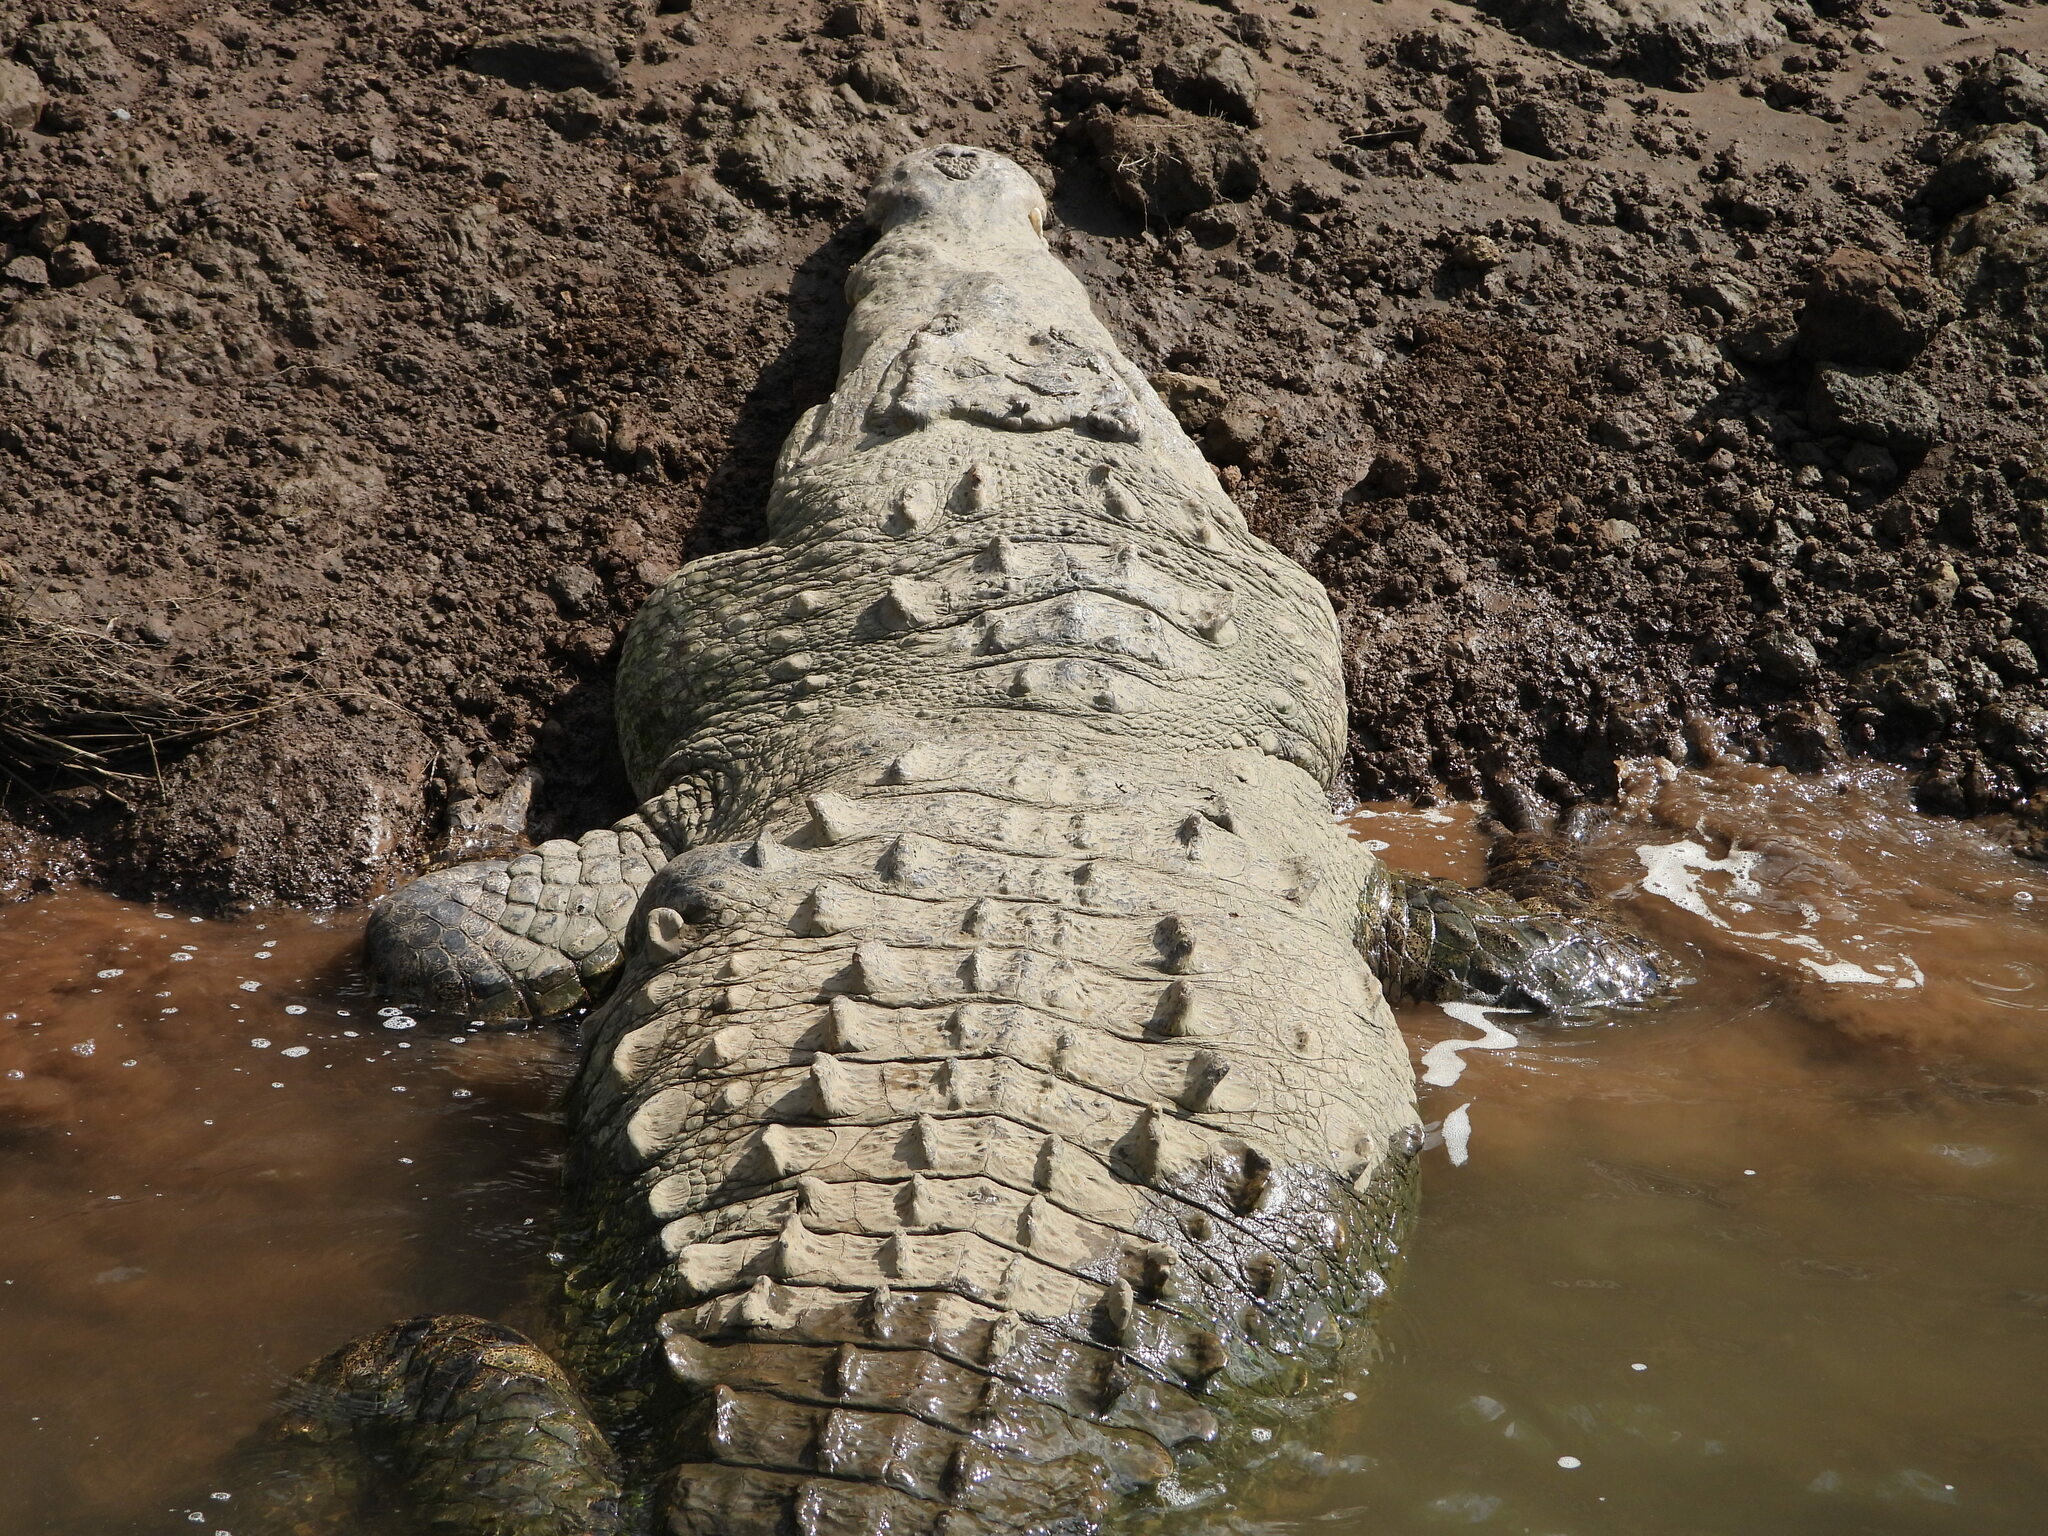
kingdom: Animalia
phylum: Chordata
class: Crocodylia
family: Crocodylidae
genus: Crocodylus
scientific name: Crocodylus acutus
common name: American crocodile
